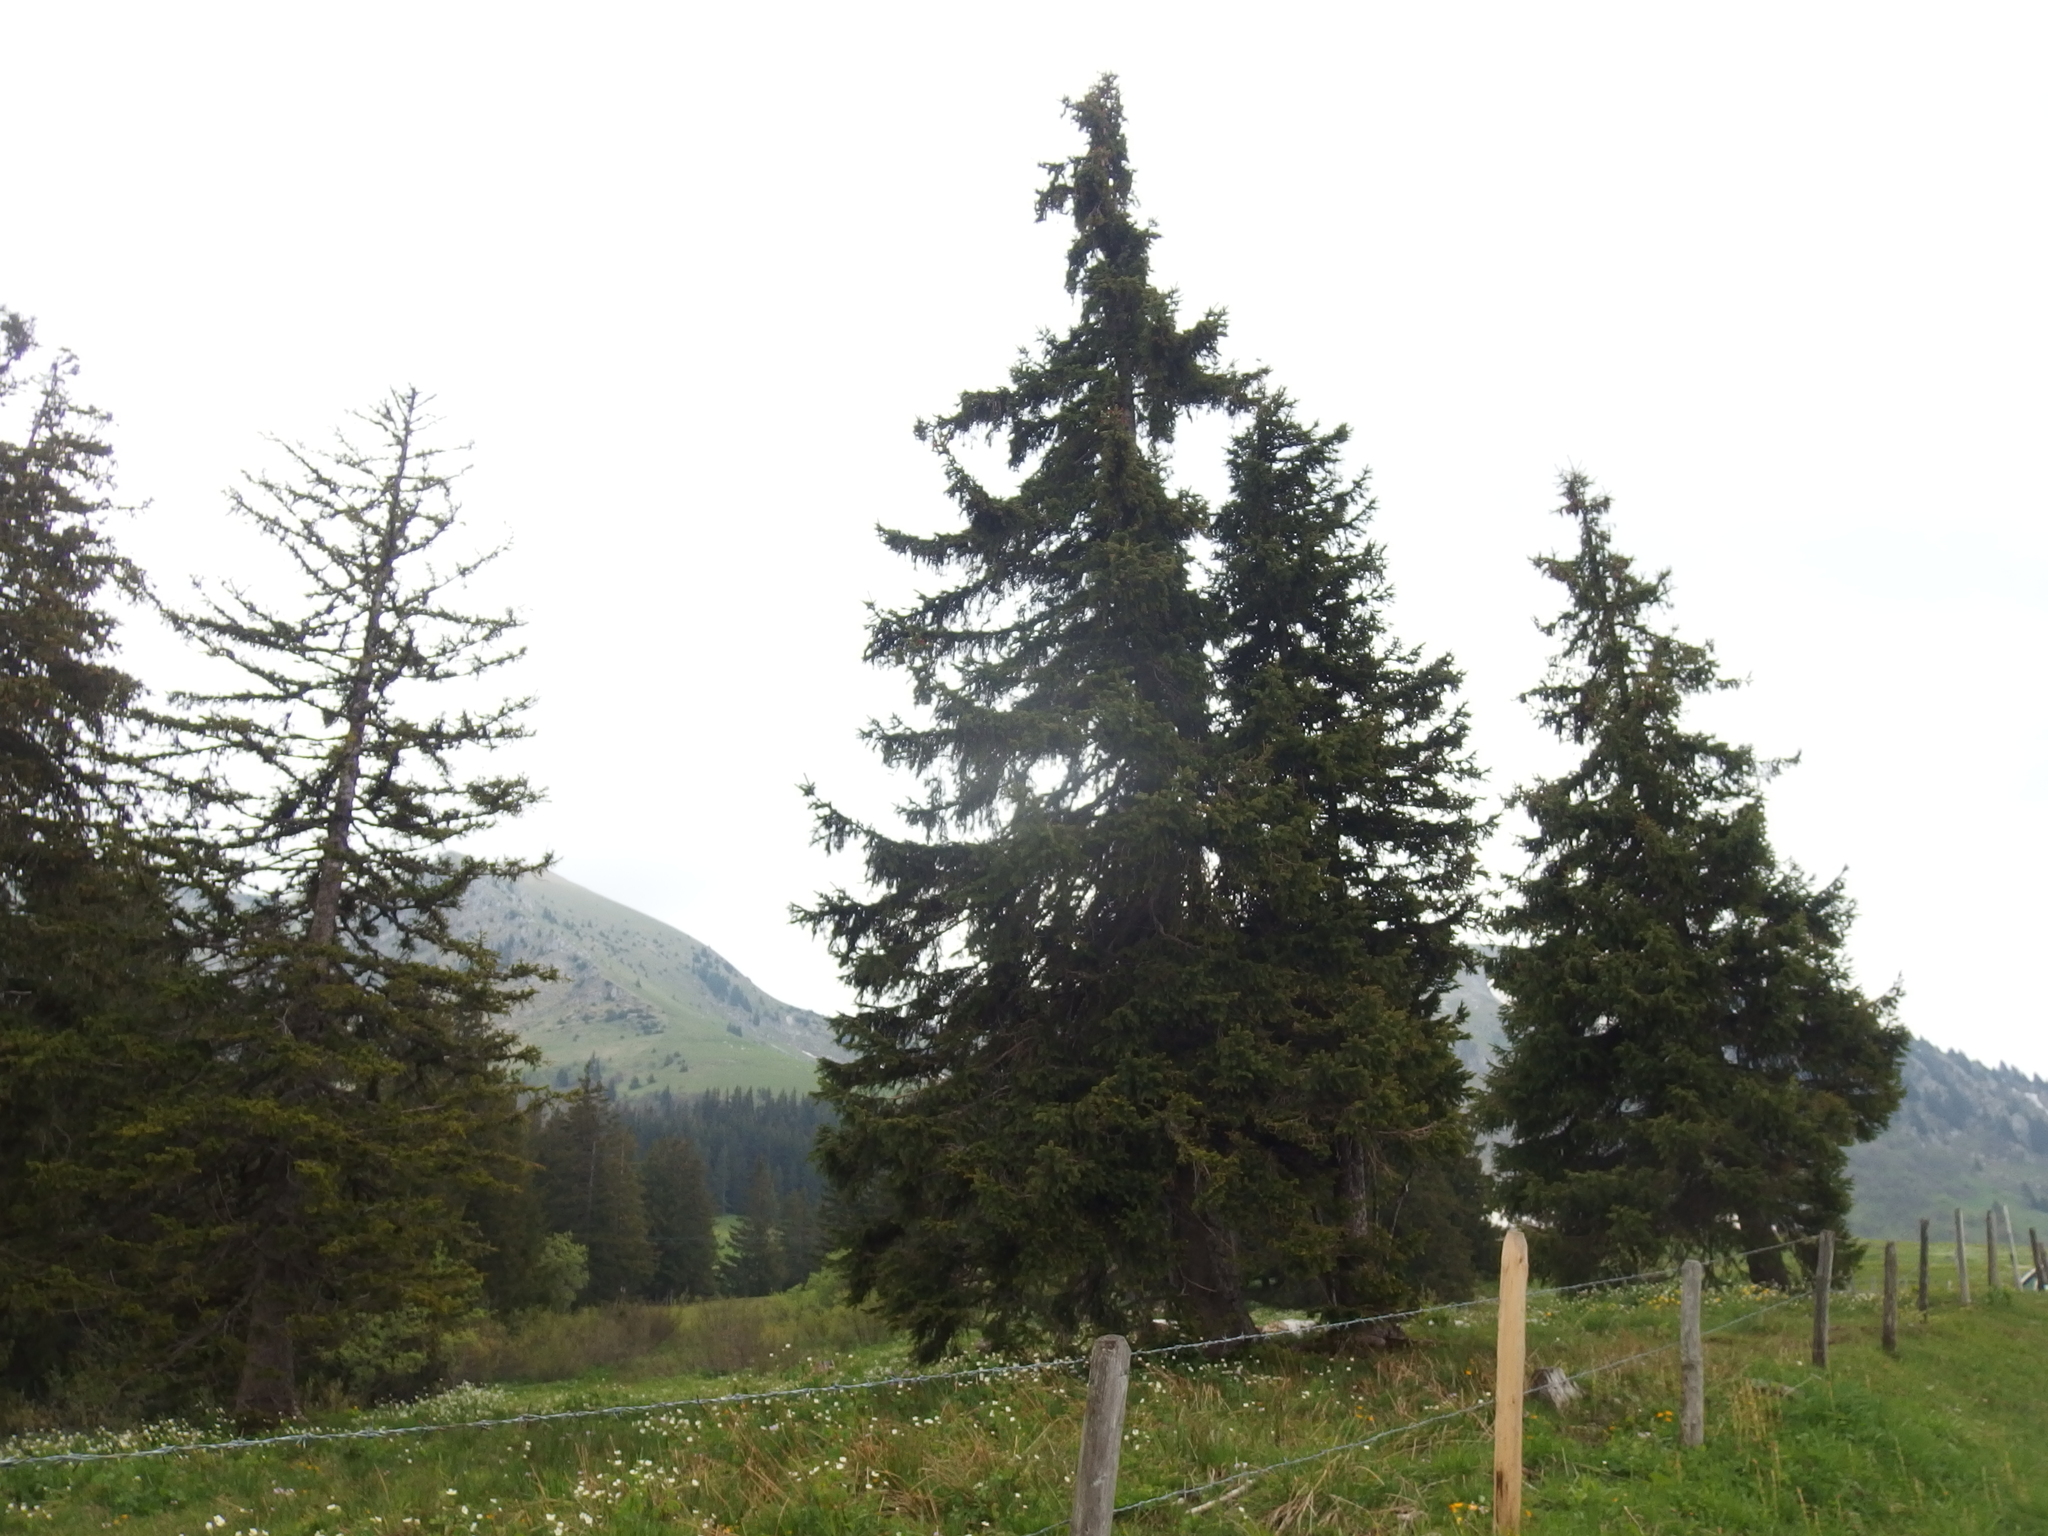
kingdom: Plantae
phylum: Tracheophyta
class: Pinopsida
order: Pinales
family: Pinaceae
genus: Picea
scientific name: Picea abies
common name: Norway spruce
